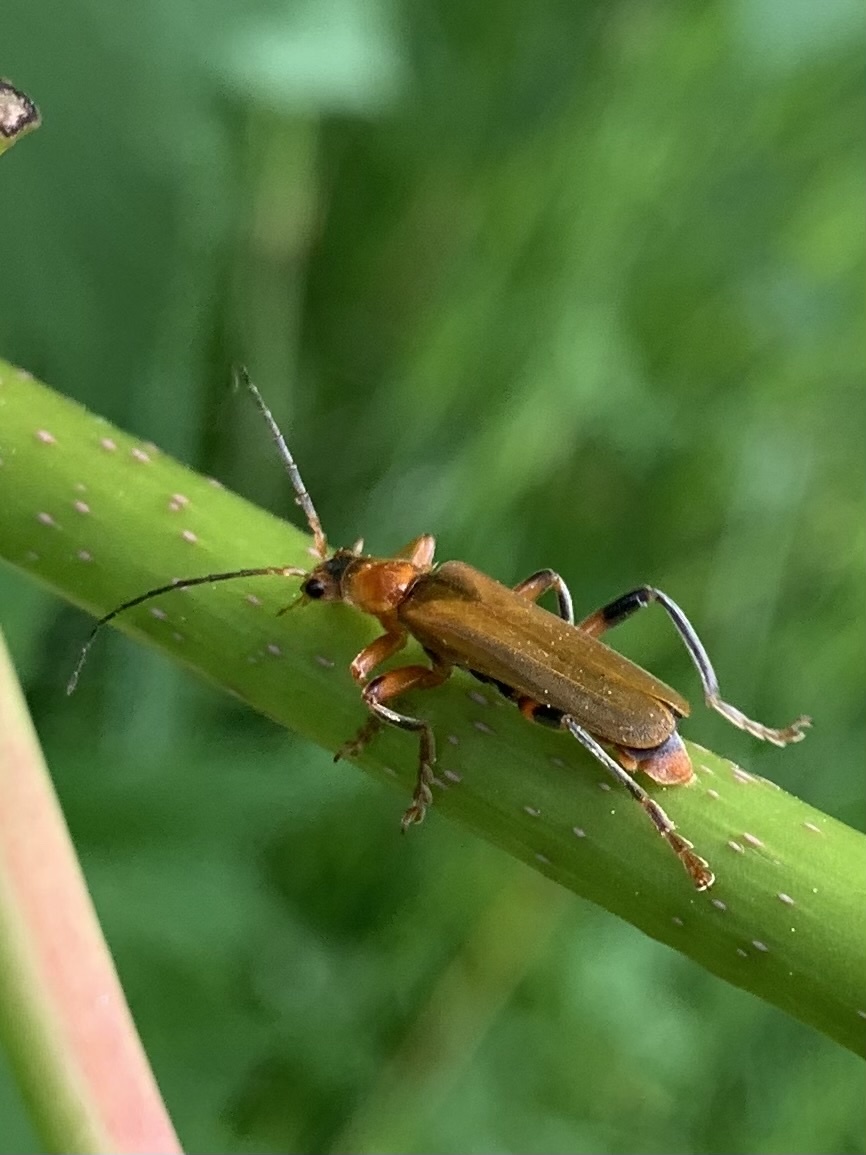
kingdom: Animalia
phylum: Arthropoda
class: Insecta
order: Coleoptera
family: Cantharidae
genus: Cantharis
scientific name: Cantharis livida
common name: Livid soldier beetle
